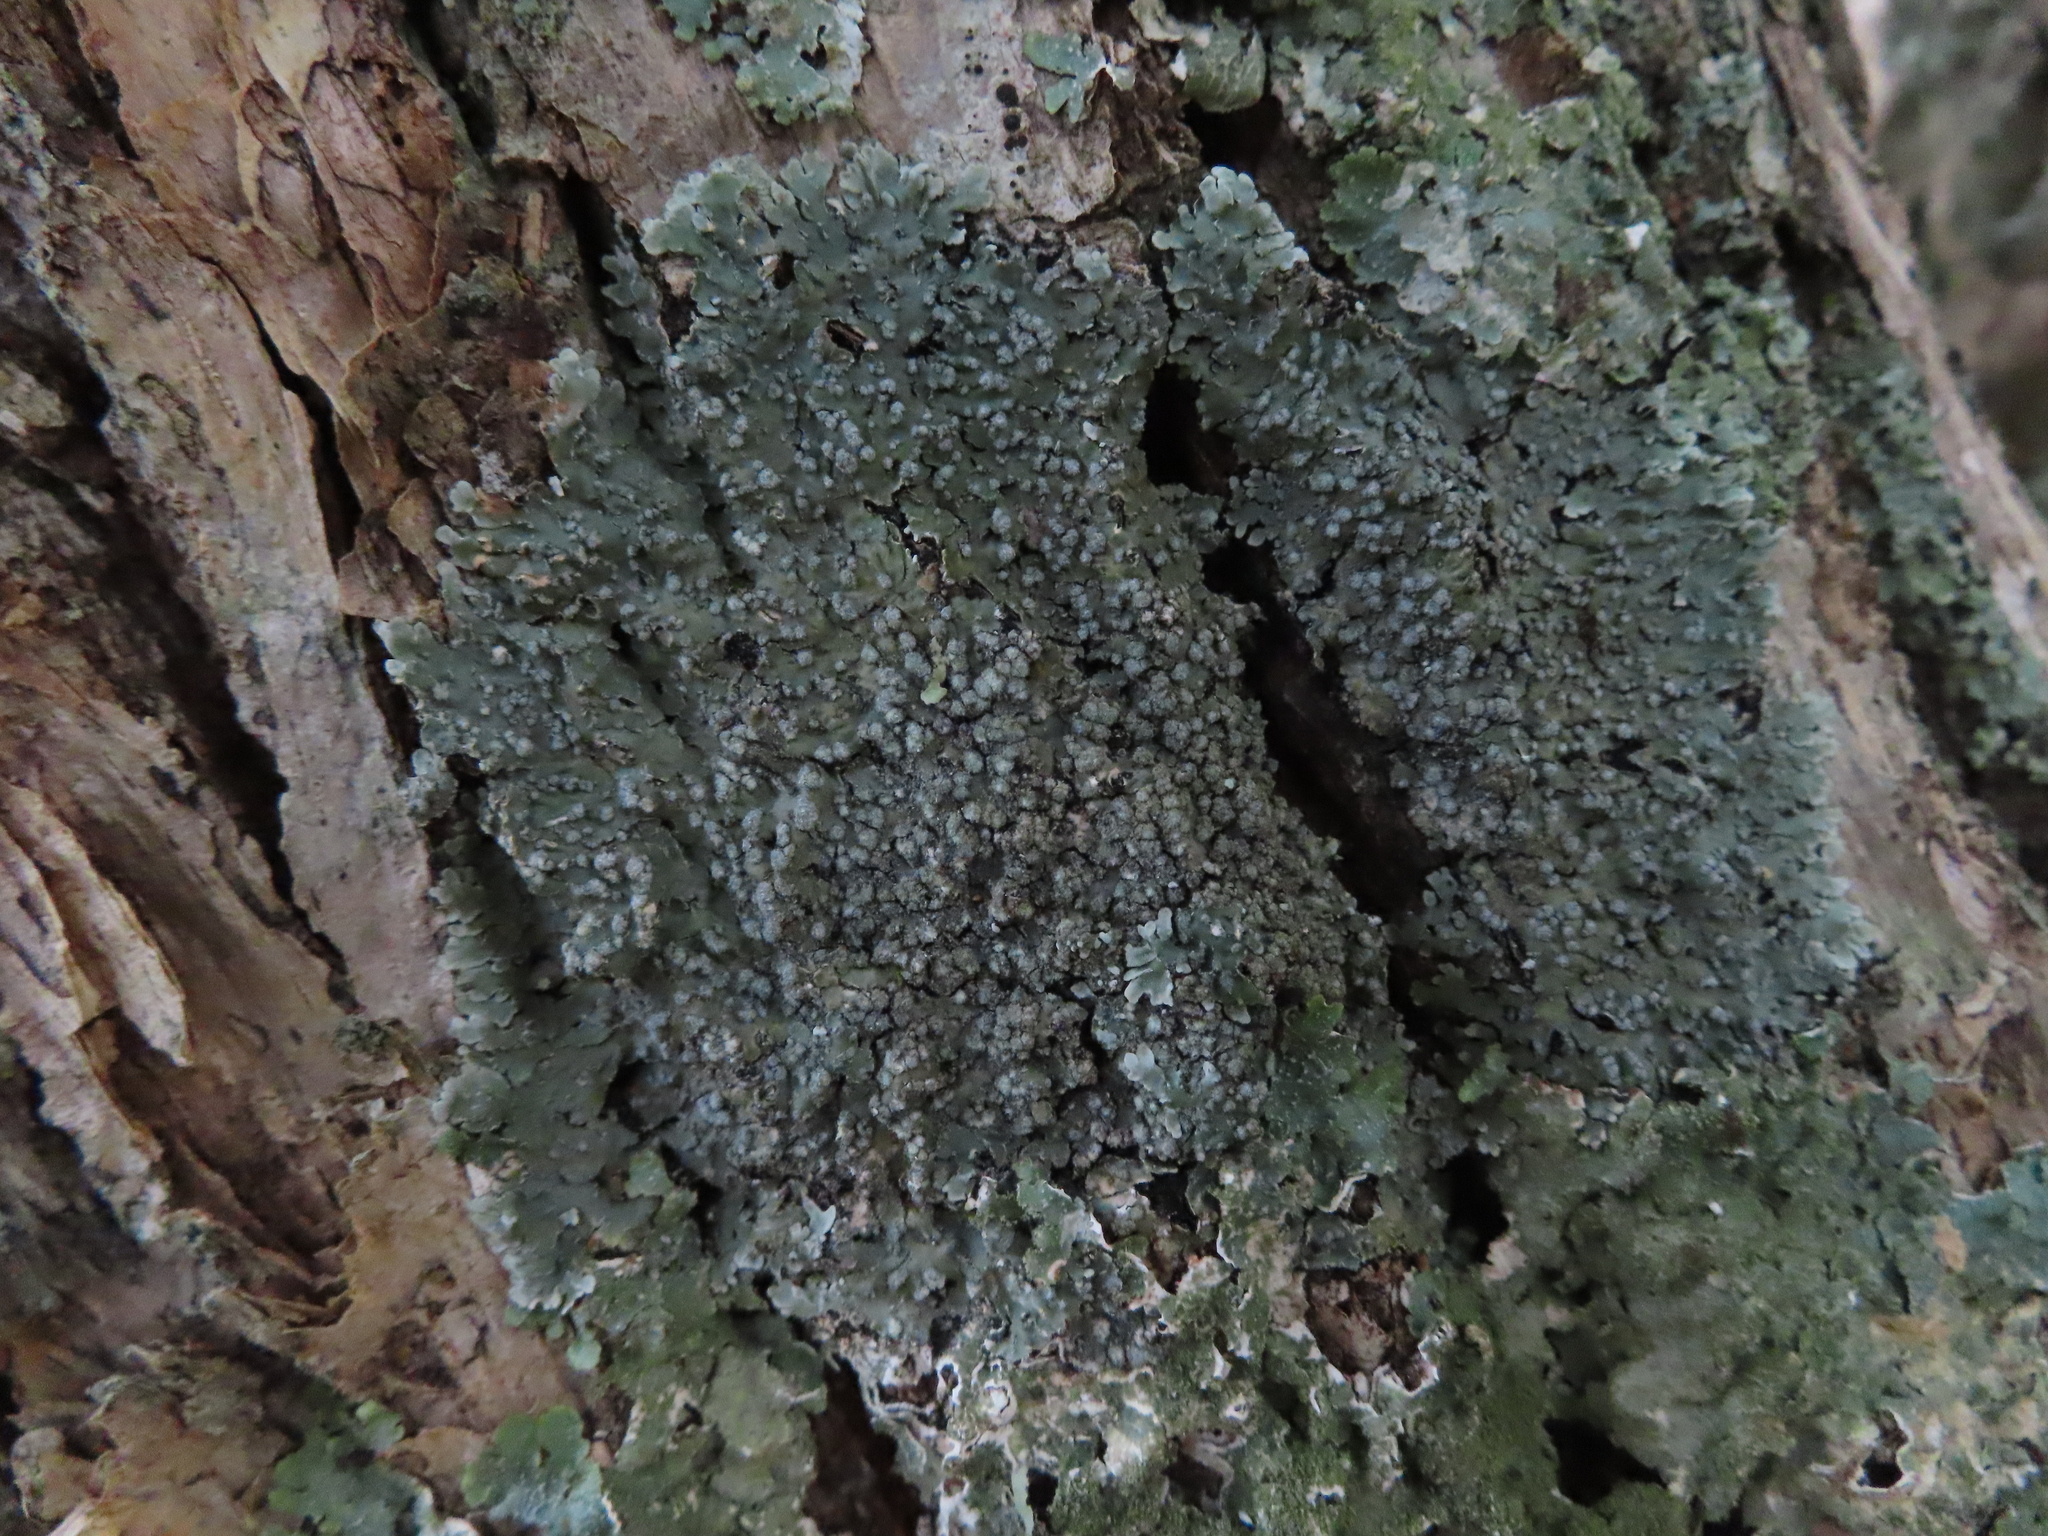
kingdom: Fungi
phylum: Ascomycota
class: Lecanoromycetes
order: Caliciales
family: Caliciaceae
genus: Pyxine
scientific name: Pyxine sorediata
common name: Mustard lichen
